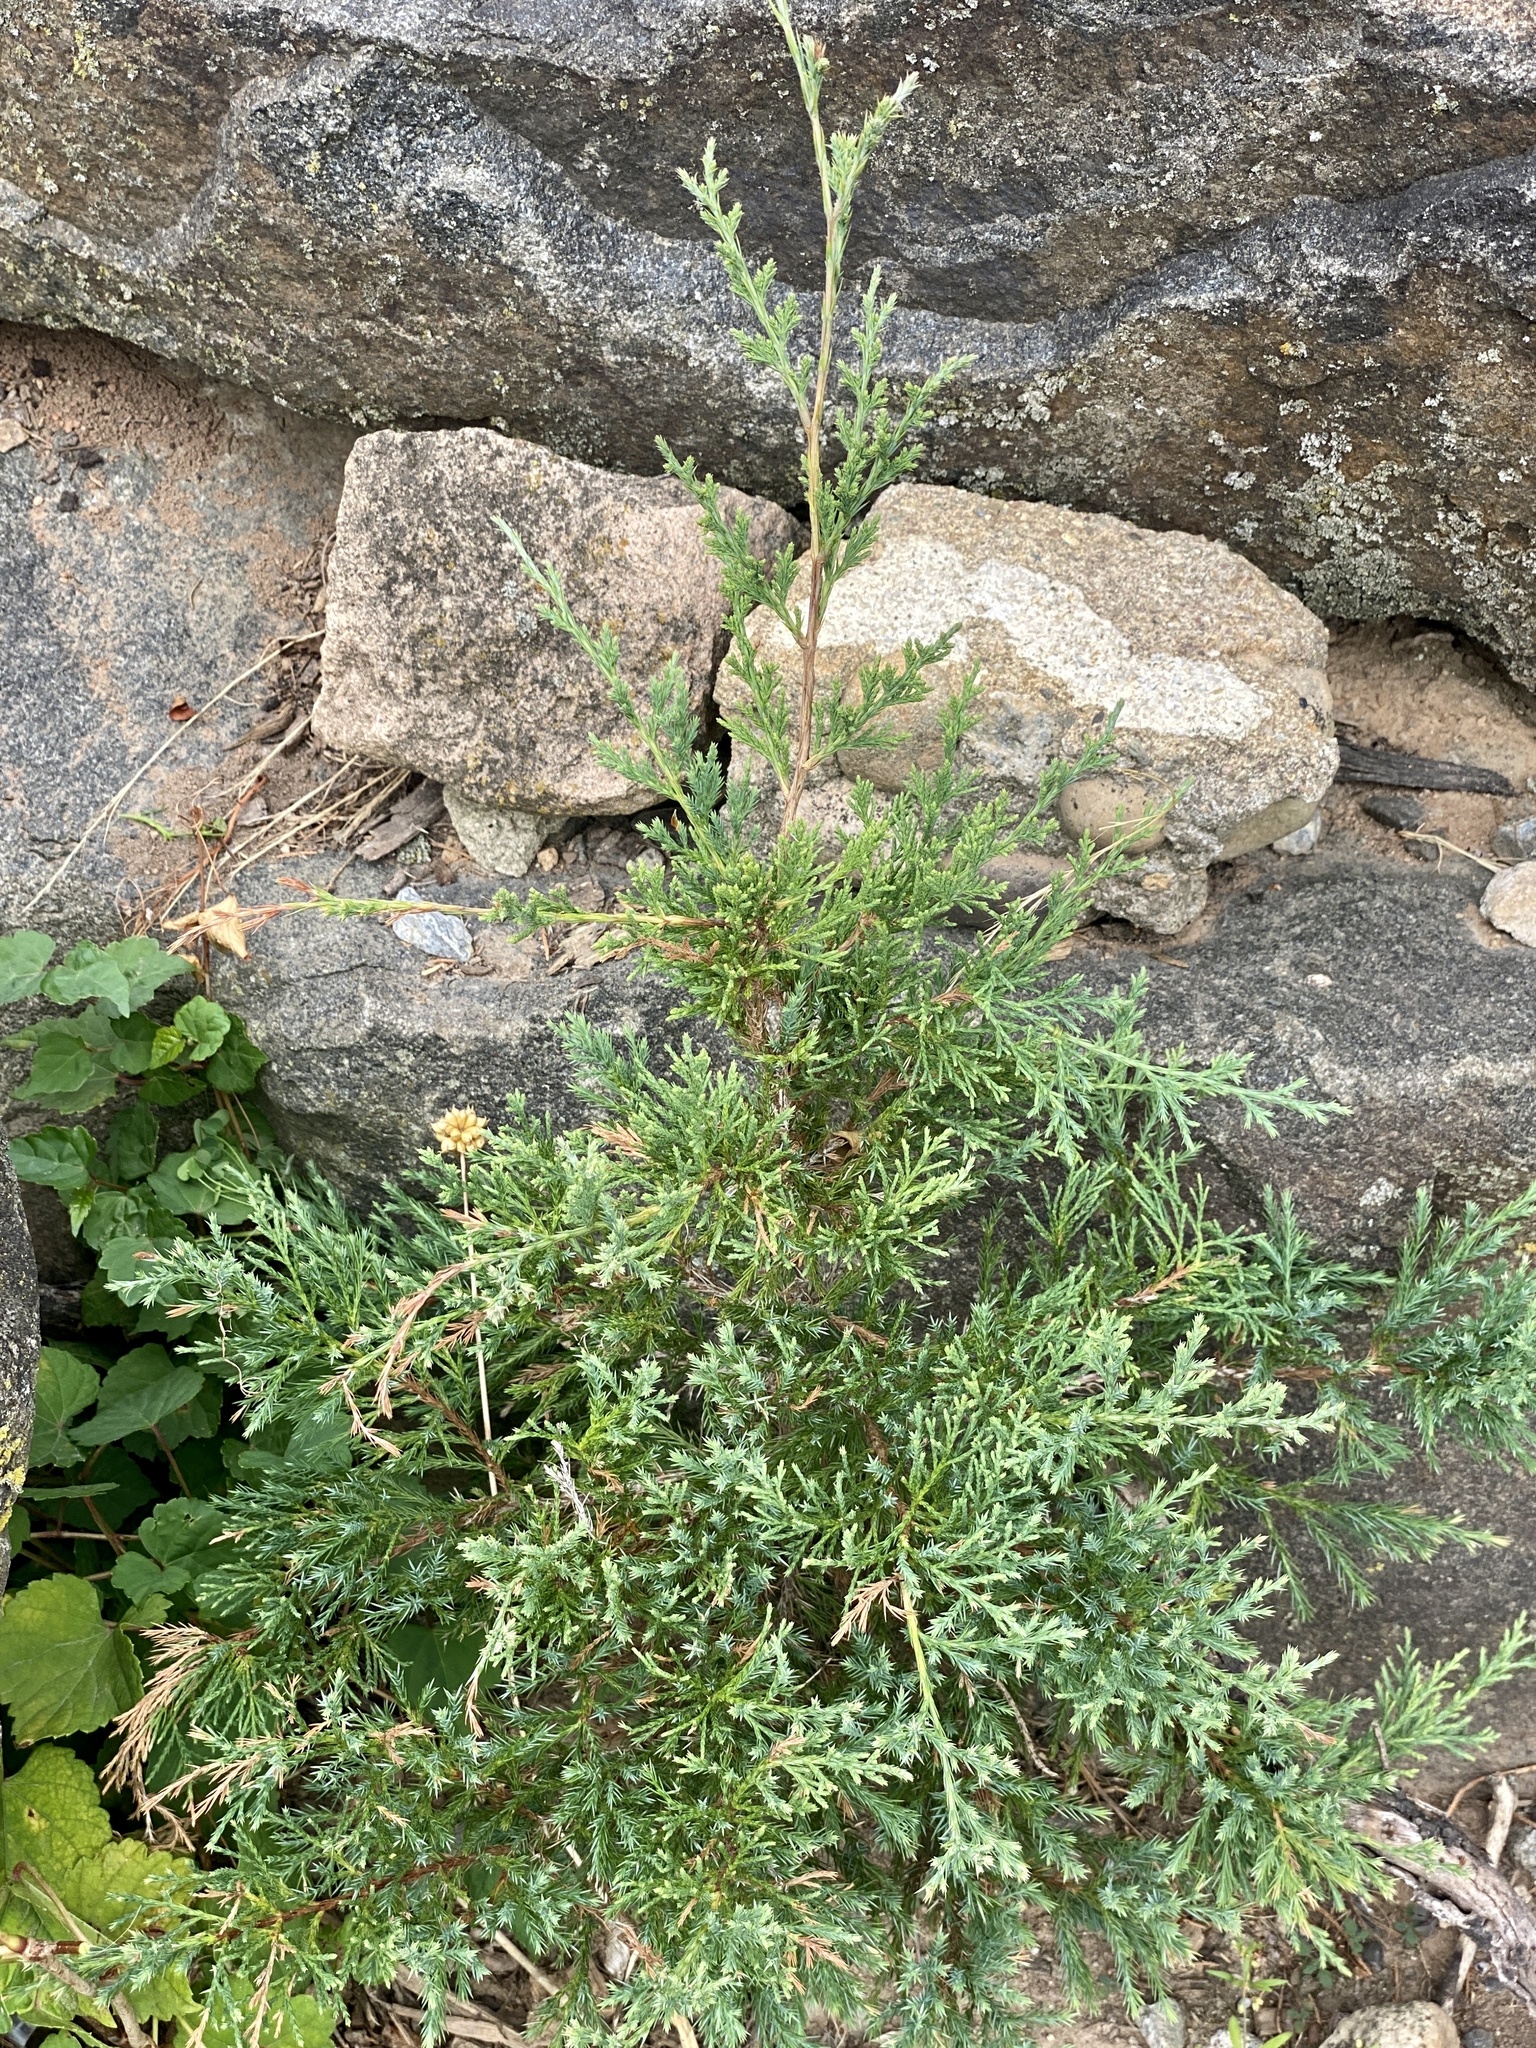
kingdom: Plantae
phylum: Tracheophyta
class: Pinopsida
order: Pinales
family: Cupressaceae
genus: Juniperus
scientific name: Juniperus virginiana
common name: Red juniper
